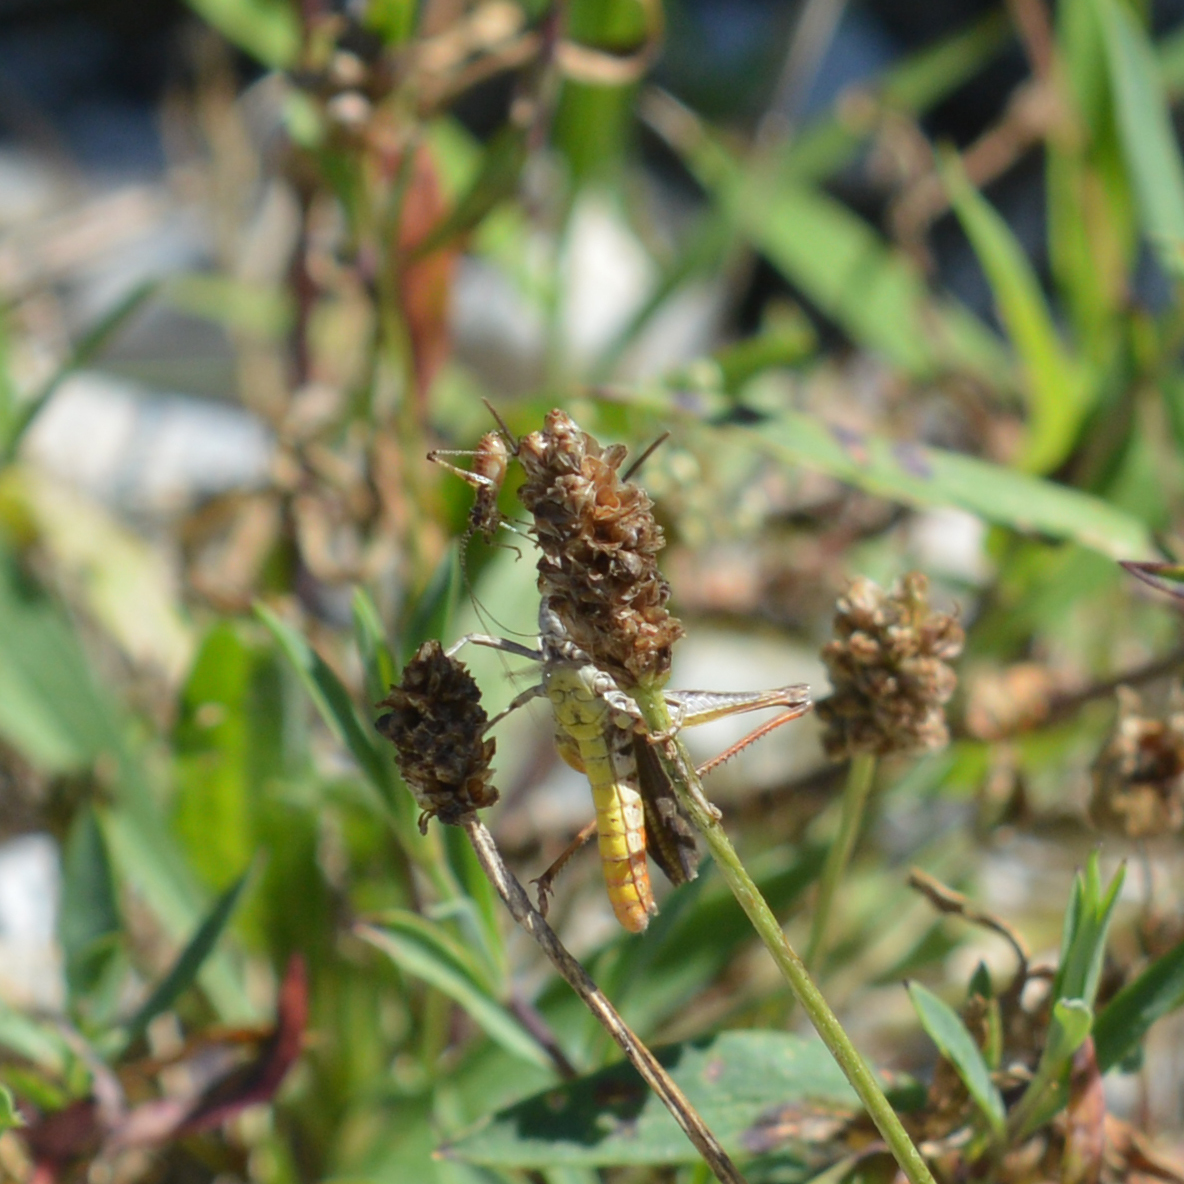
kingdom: Animalia
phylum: Arthropoda
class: Insecta
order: Orthoptera
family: Tettigoniidae
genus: Phaneroptera
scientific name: Phaneroptera nana
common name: Southern sickle bush-cricket
